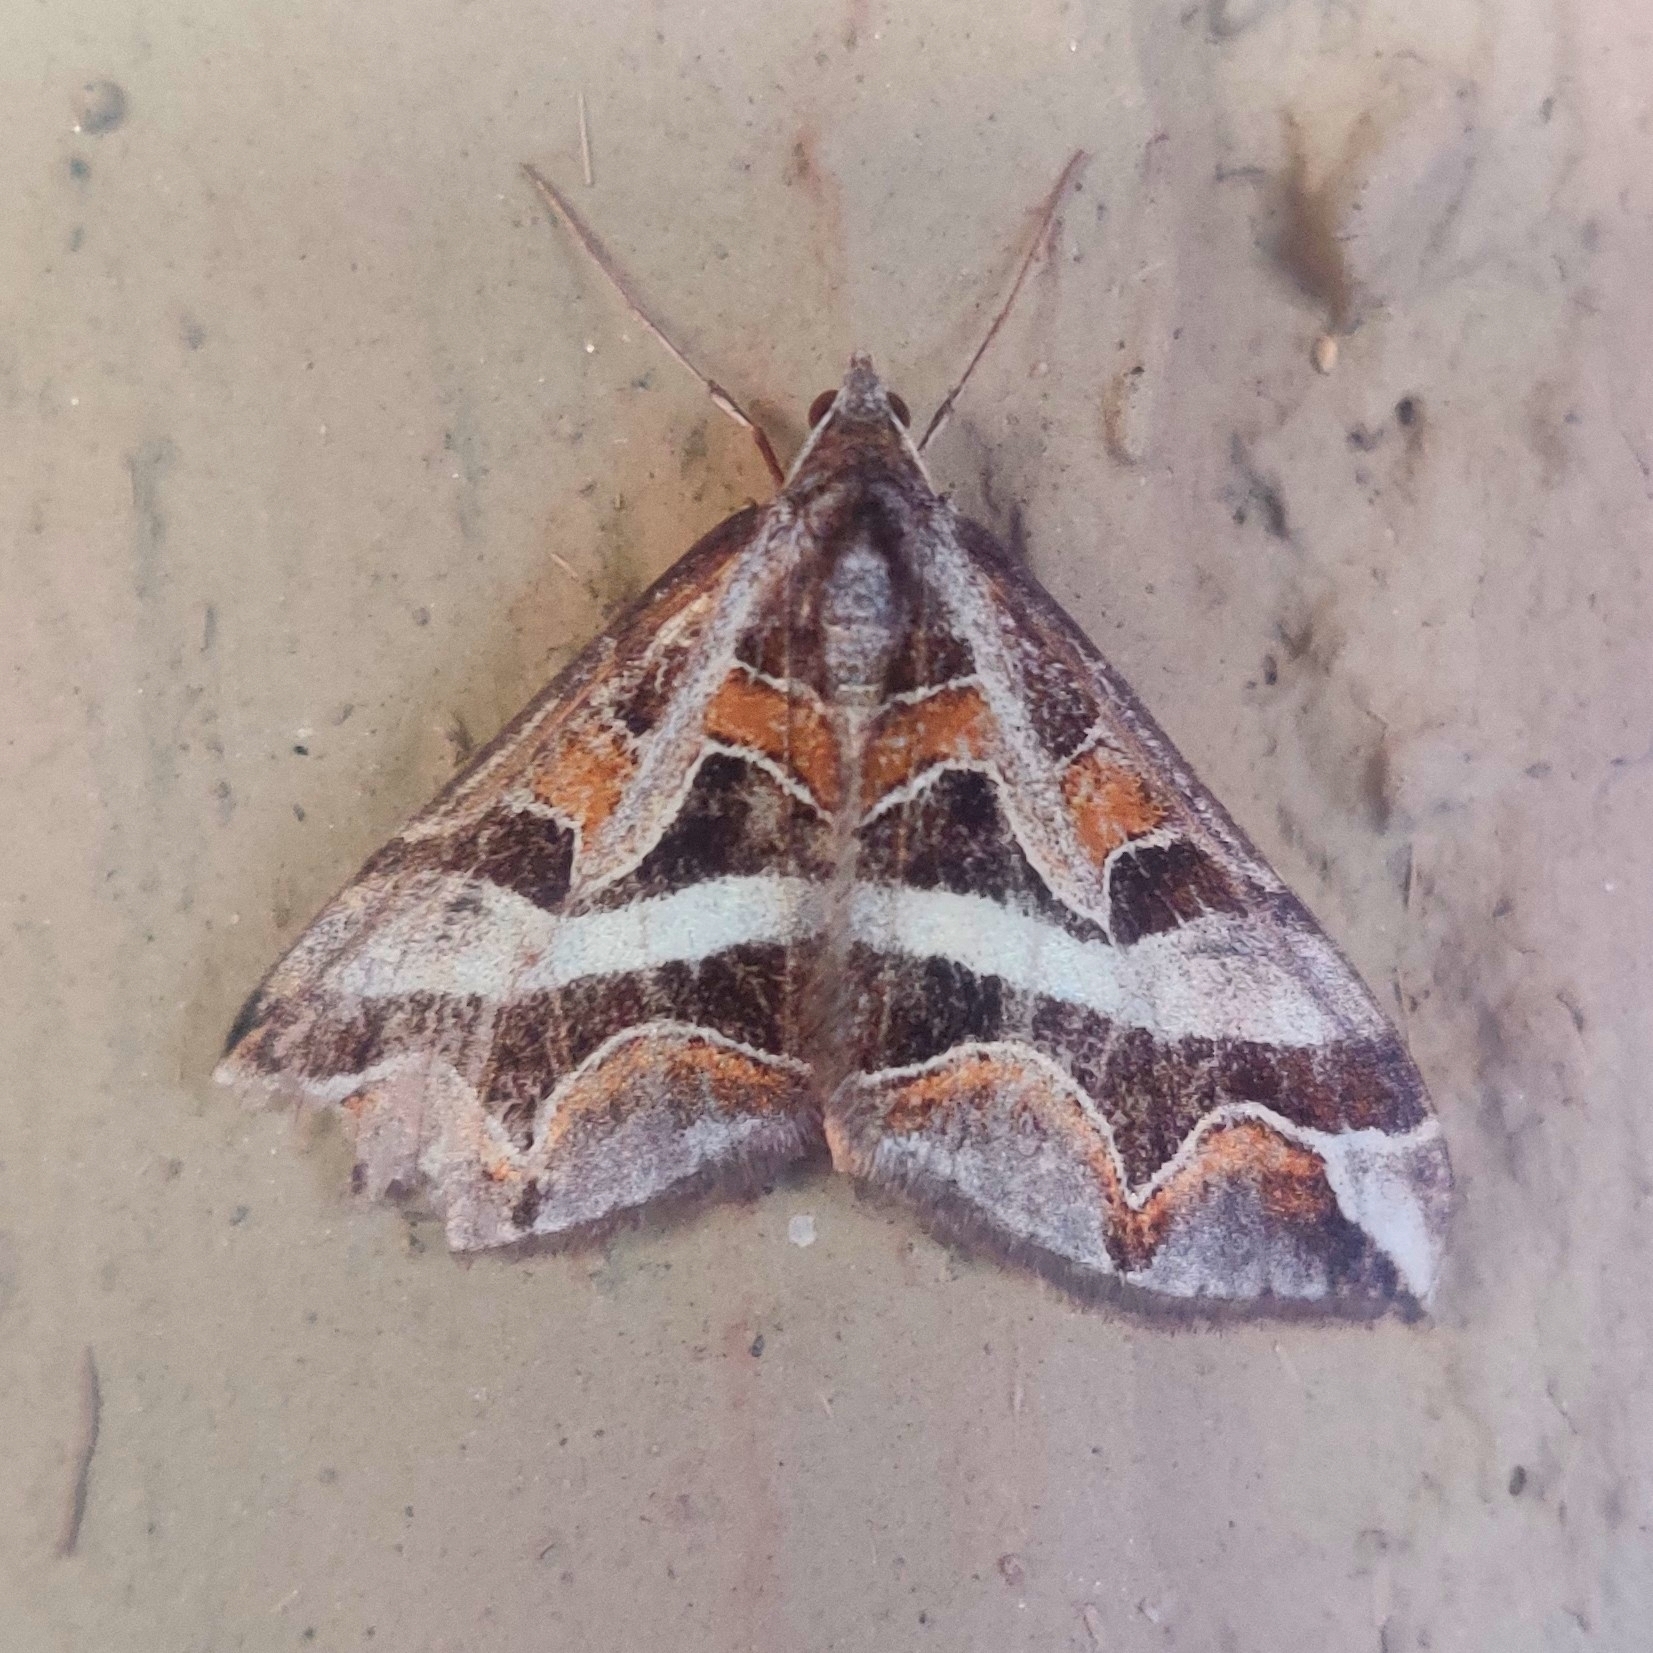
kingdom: Animalia
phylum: Arthropoda
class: Insecta
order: Lepidoptera
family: Geometridae
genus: Docirava
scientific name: Docirava fulgurata
